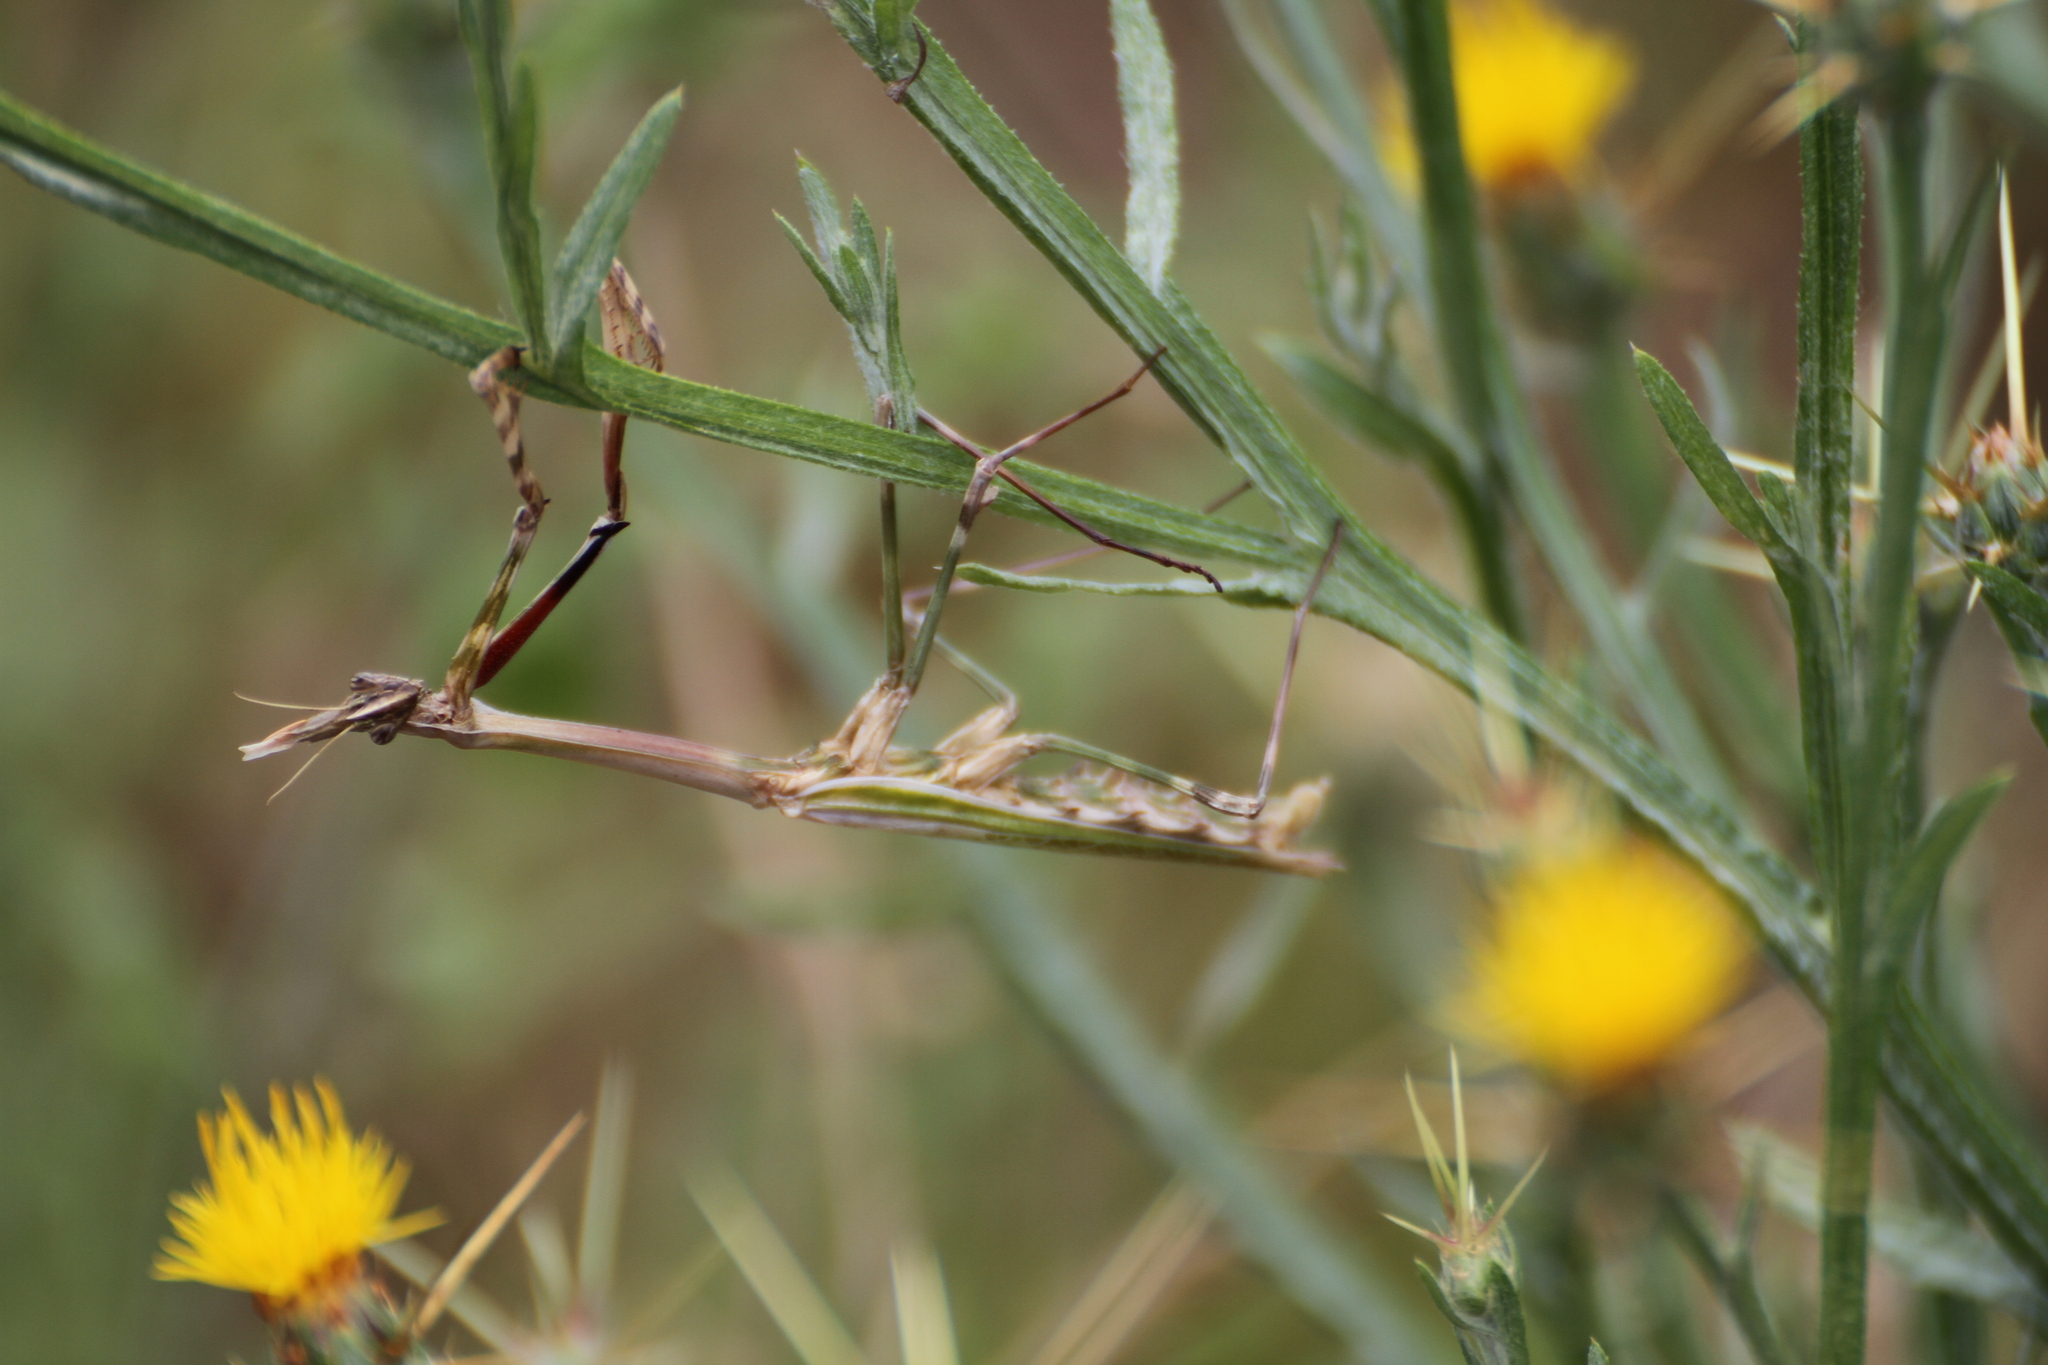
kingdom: Animalia
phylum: Arthropoda
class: Insecta
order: Mantodea
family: Empusidae
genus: Empusa
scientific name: Empusa pennata
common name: Conehead mantis
